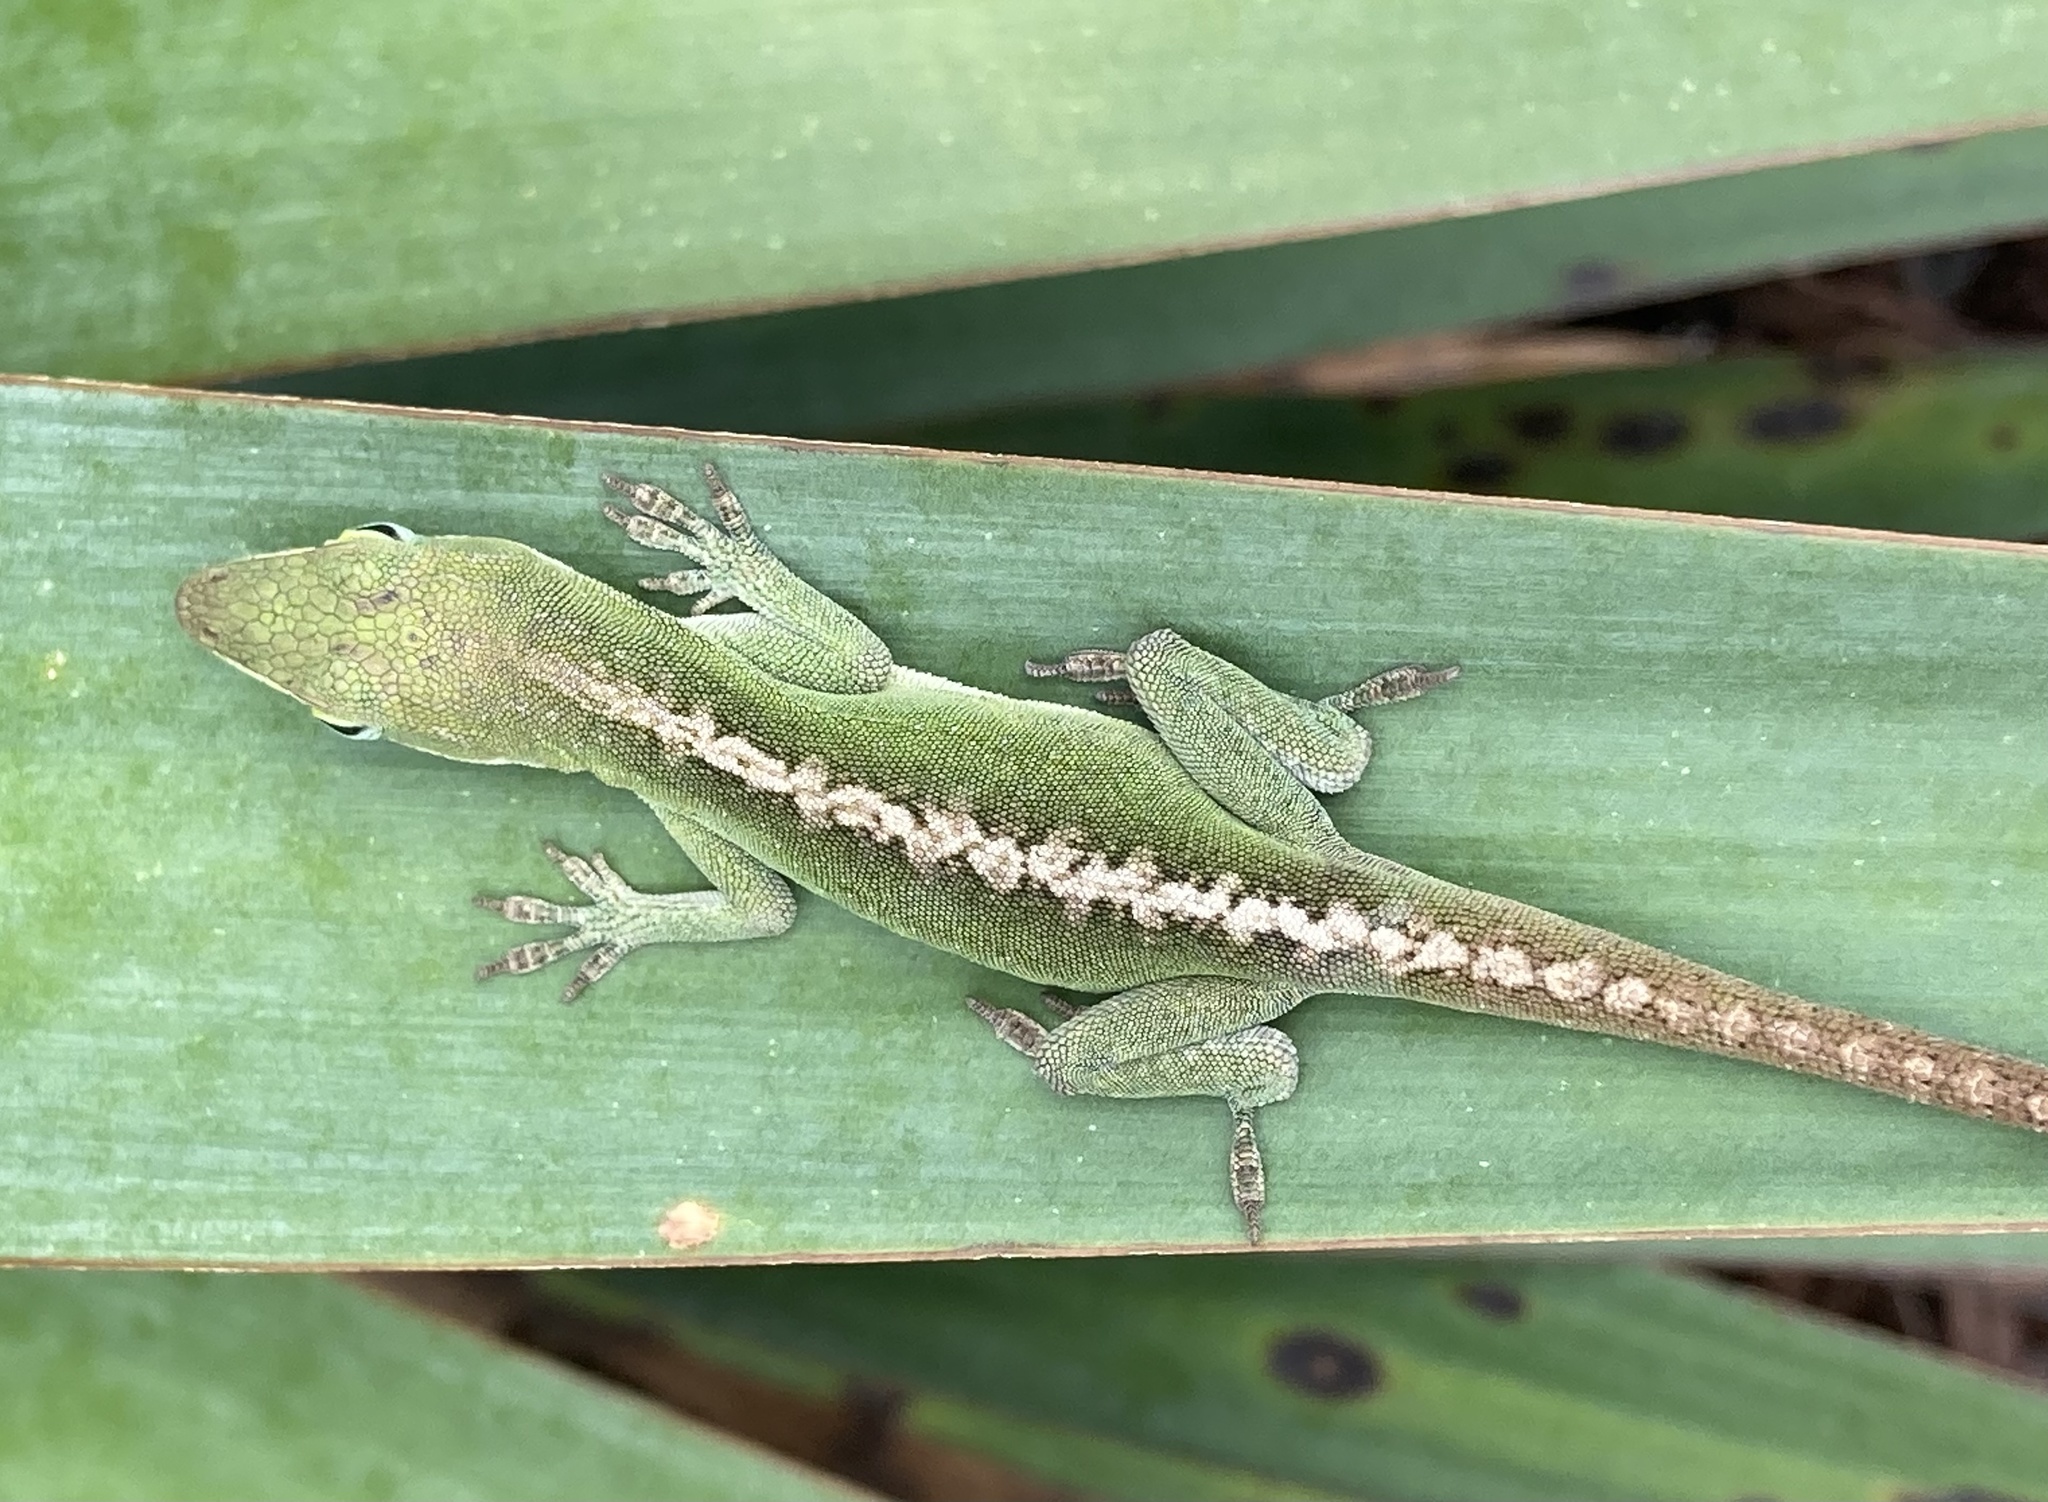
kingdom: Animalia
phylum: Chordata
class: Squamata
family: Dactyloidae
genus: Anolis
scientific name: Anolis carolinensis
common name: Green anole
